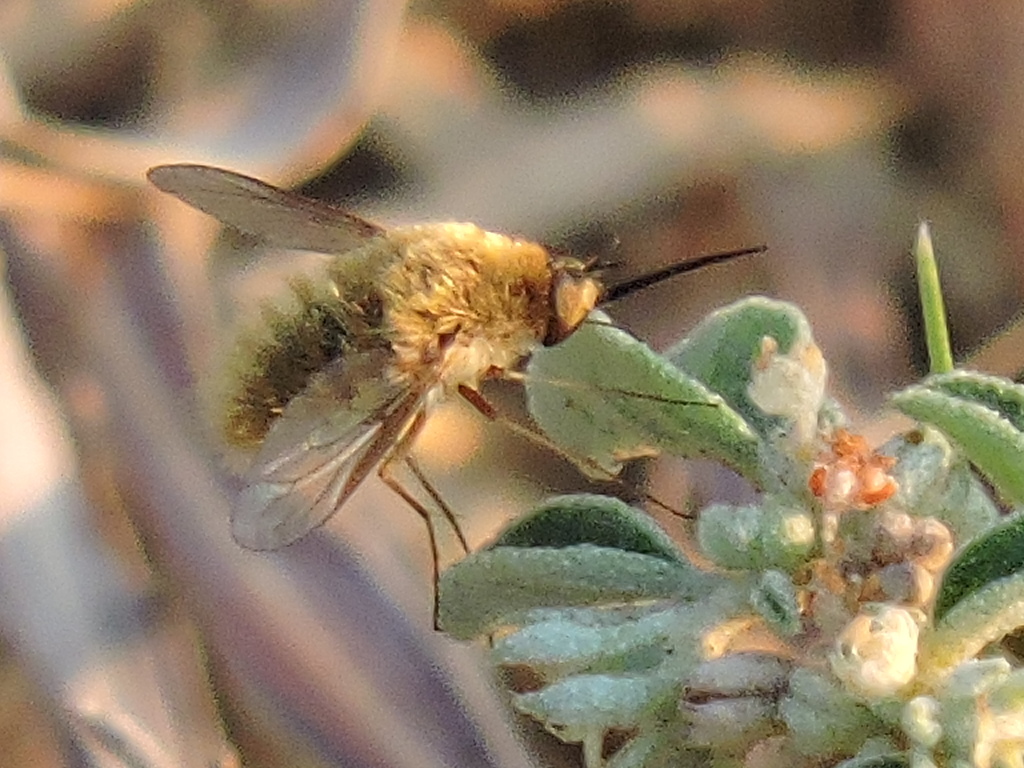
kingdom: Animalia
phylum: Arthropoda
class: Insecta
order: Diptera
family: Bombyliidae
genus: Systoechus
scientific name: Systoechus
